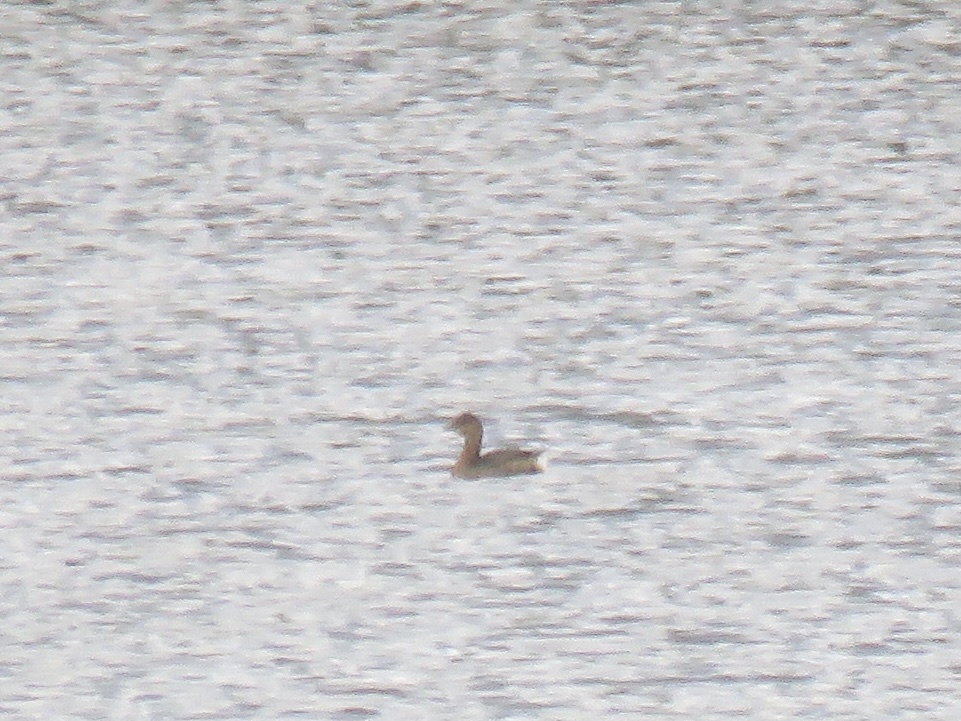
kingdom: Animalia
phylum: Chordata
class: Aves
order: Podicipediformes
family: Podicipedidae
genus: Podilymbus
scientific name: Podilymbus podiceps
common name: Pied-billed grebe
